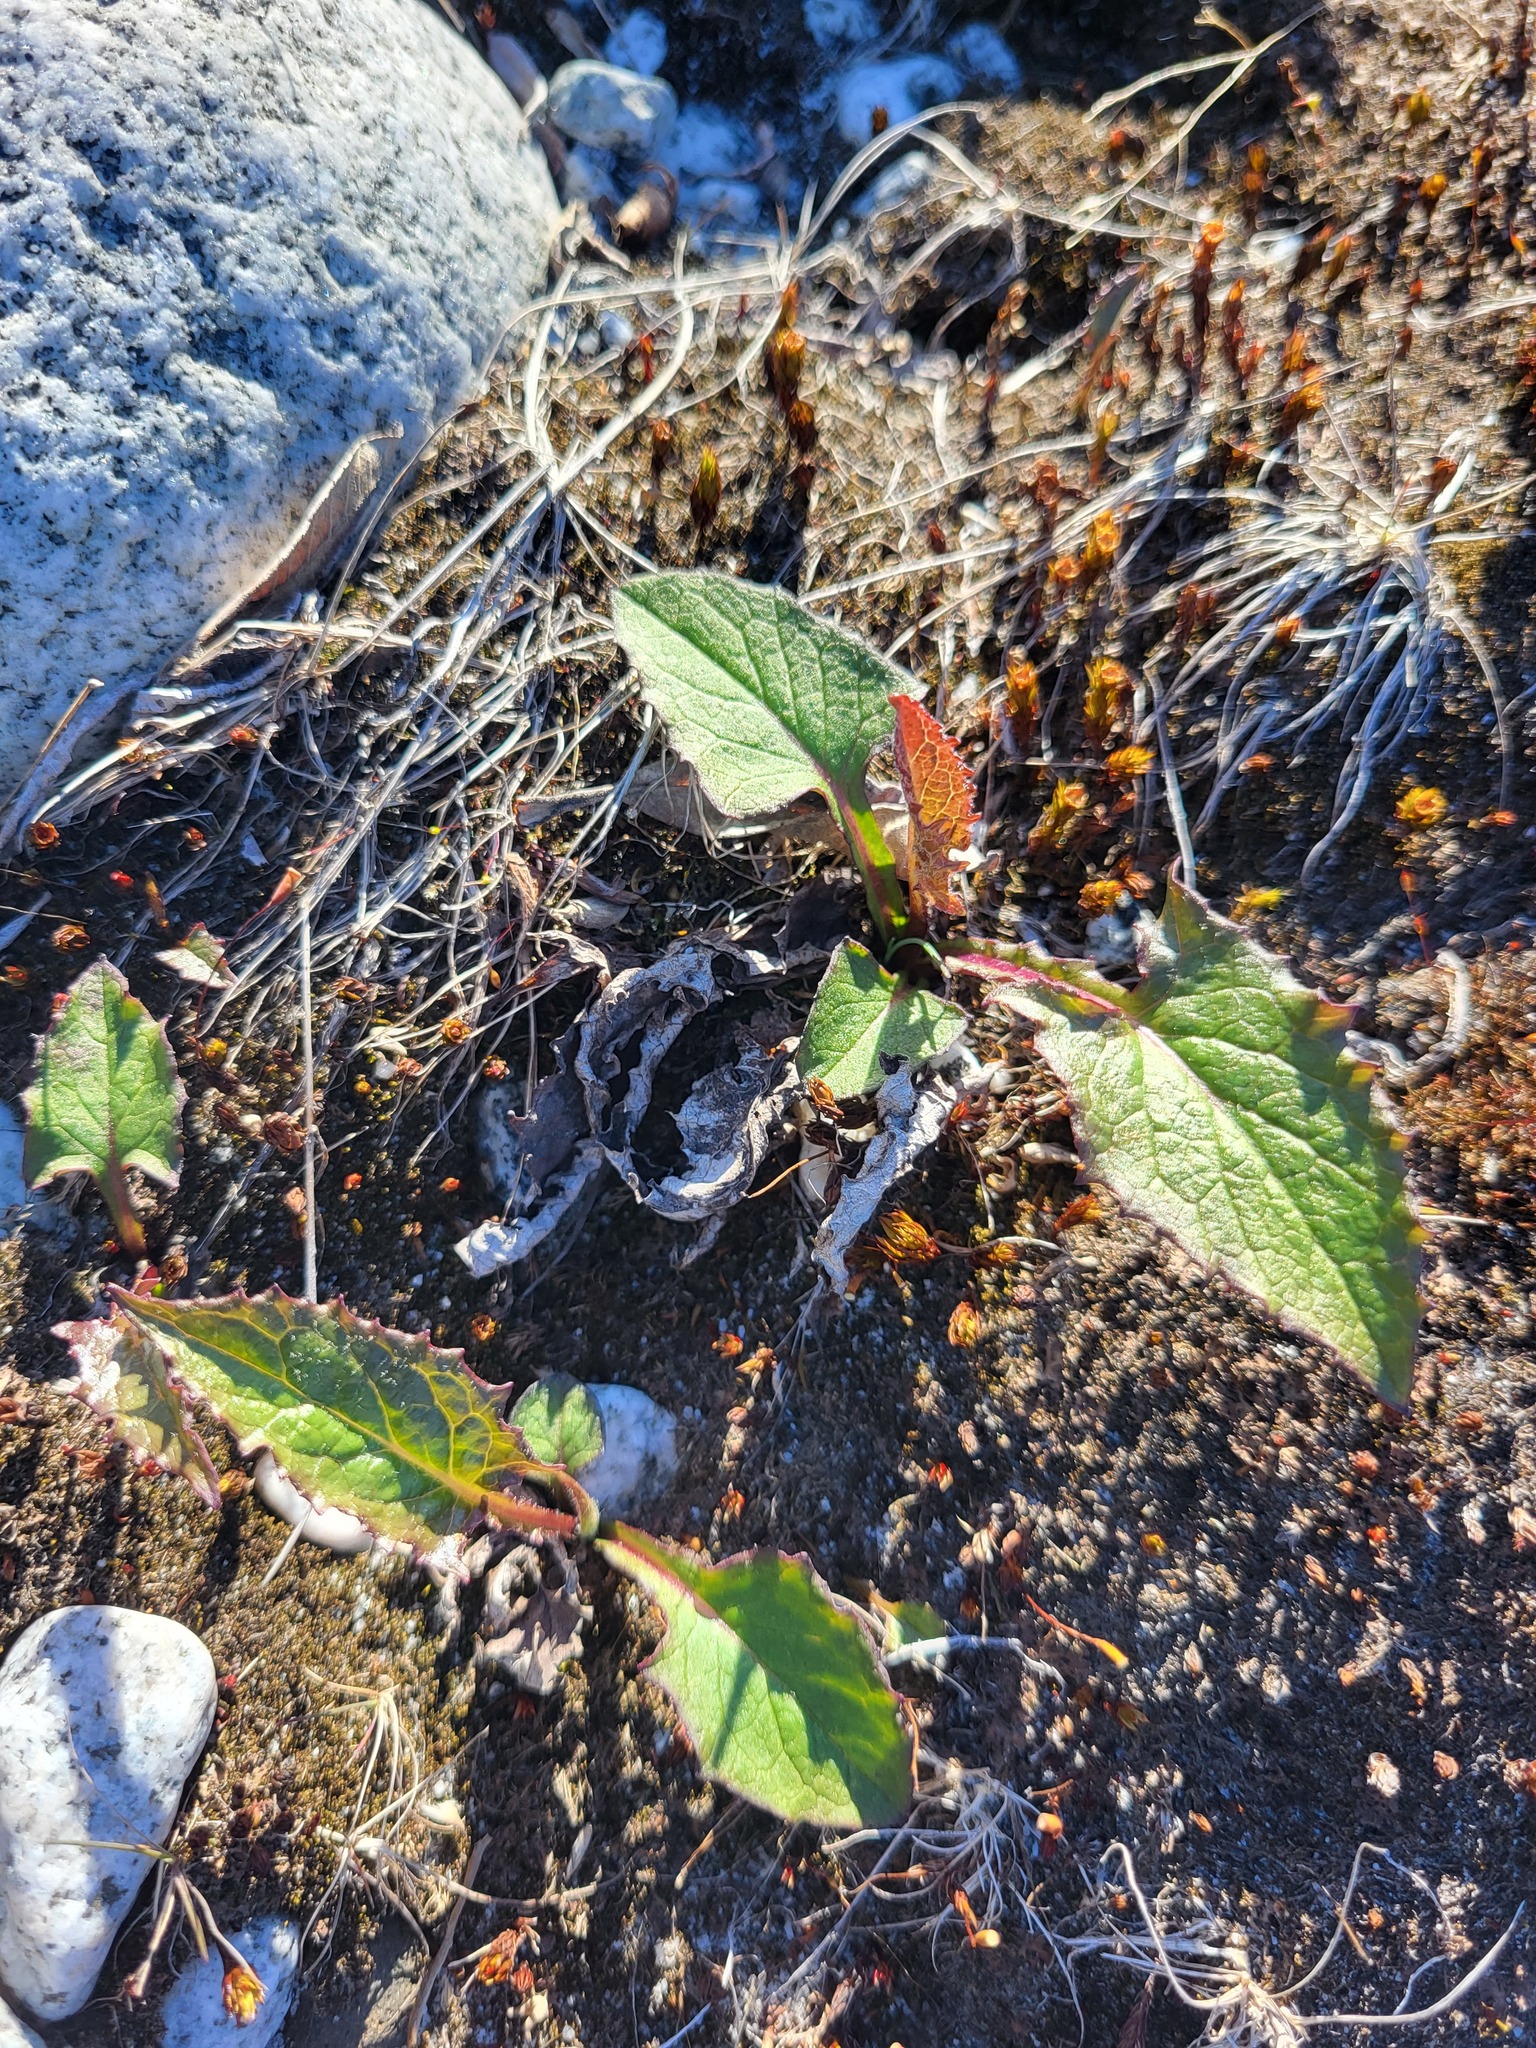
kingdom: Plantae
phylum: Tracheophyta
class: Magnoliopsida
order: Asterales
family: Asteraceae
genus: Nabalus
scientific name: Nabalus hastatus
